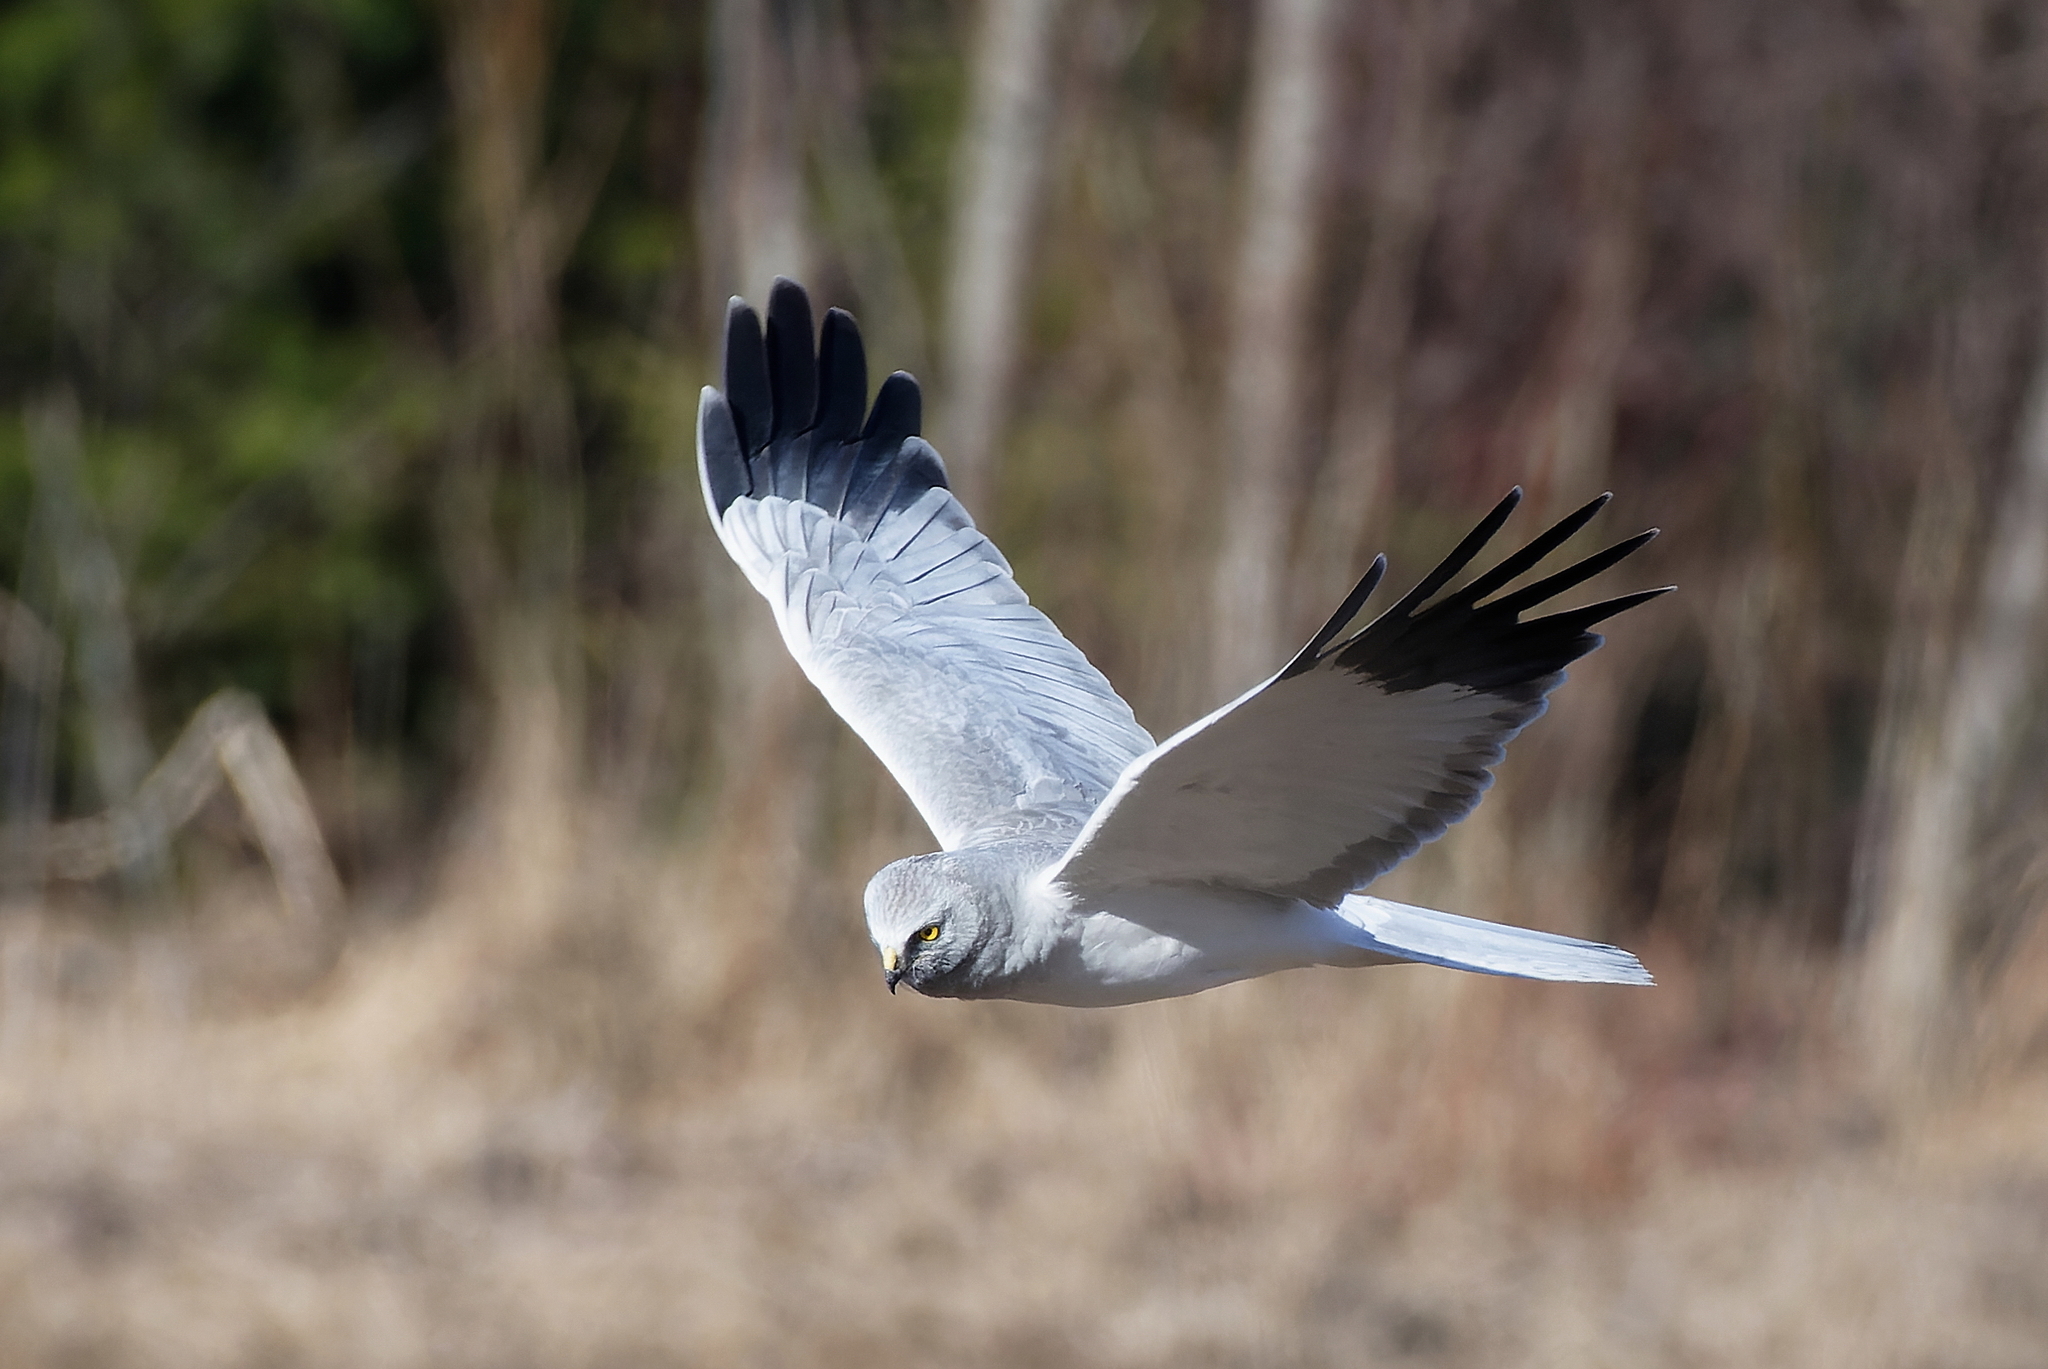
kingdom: Animalia
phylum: Chordata
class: Aves
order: Accipitriformes
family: Accipitridae
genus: Circus
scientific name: Circus cyaneus
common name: Hen harrier
